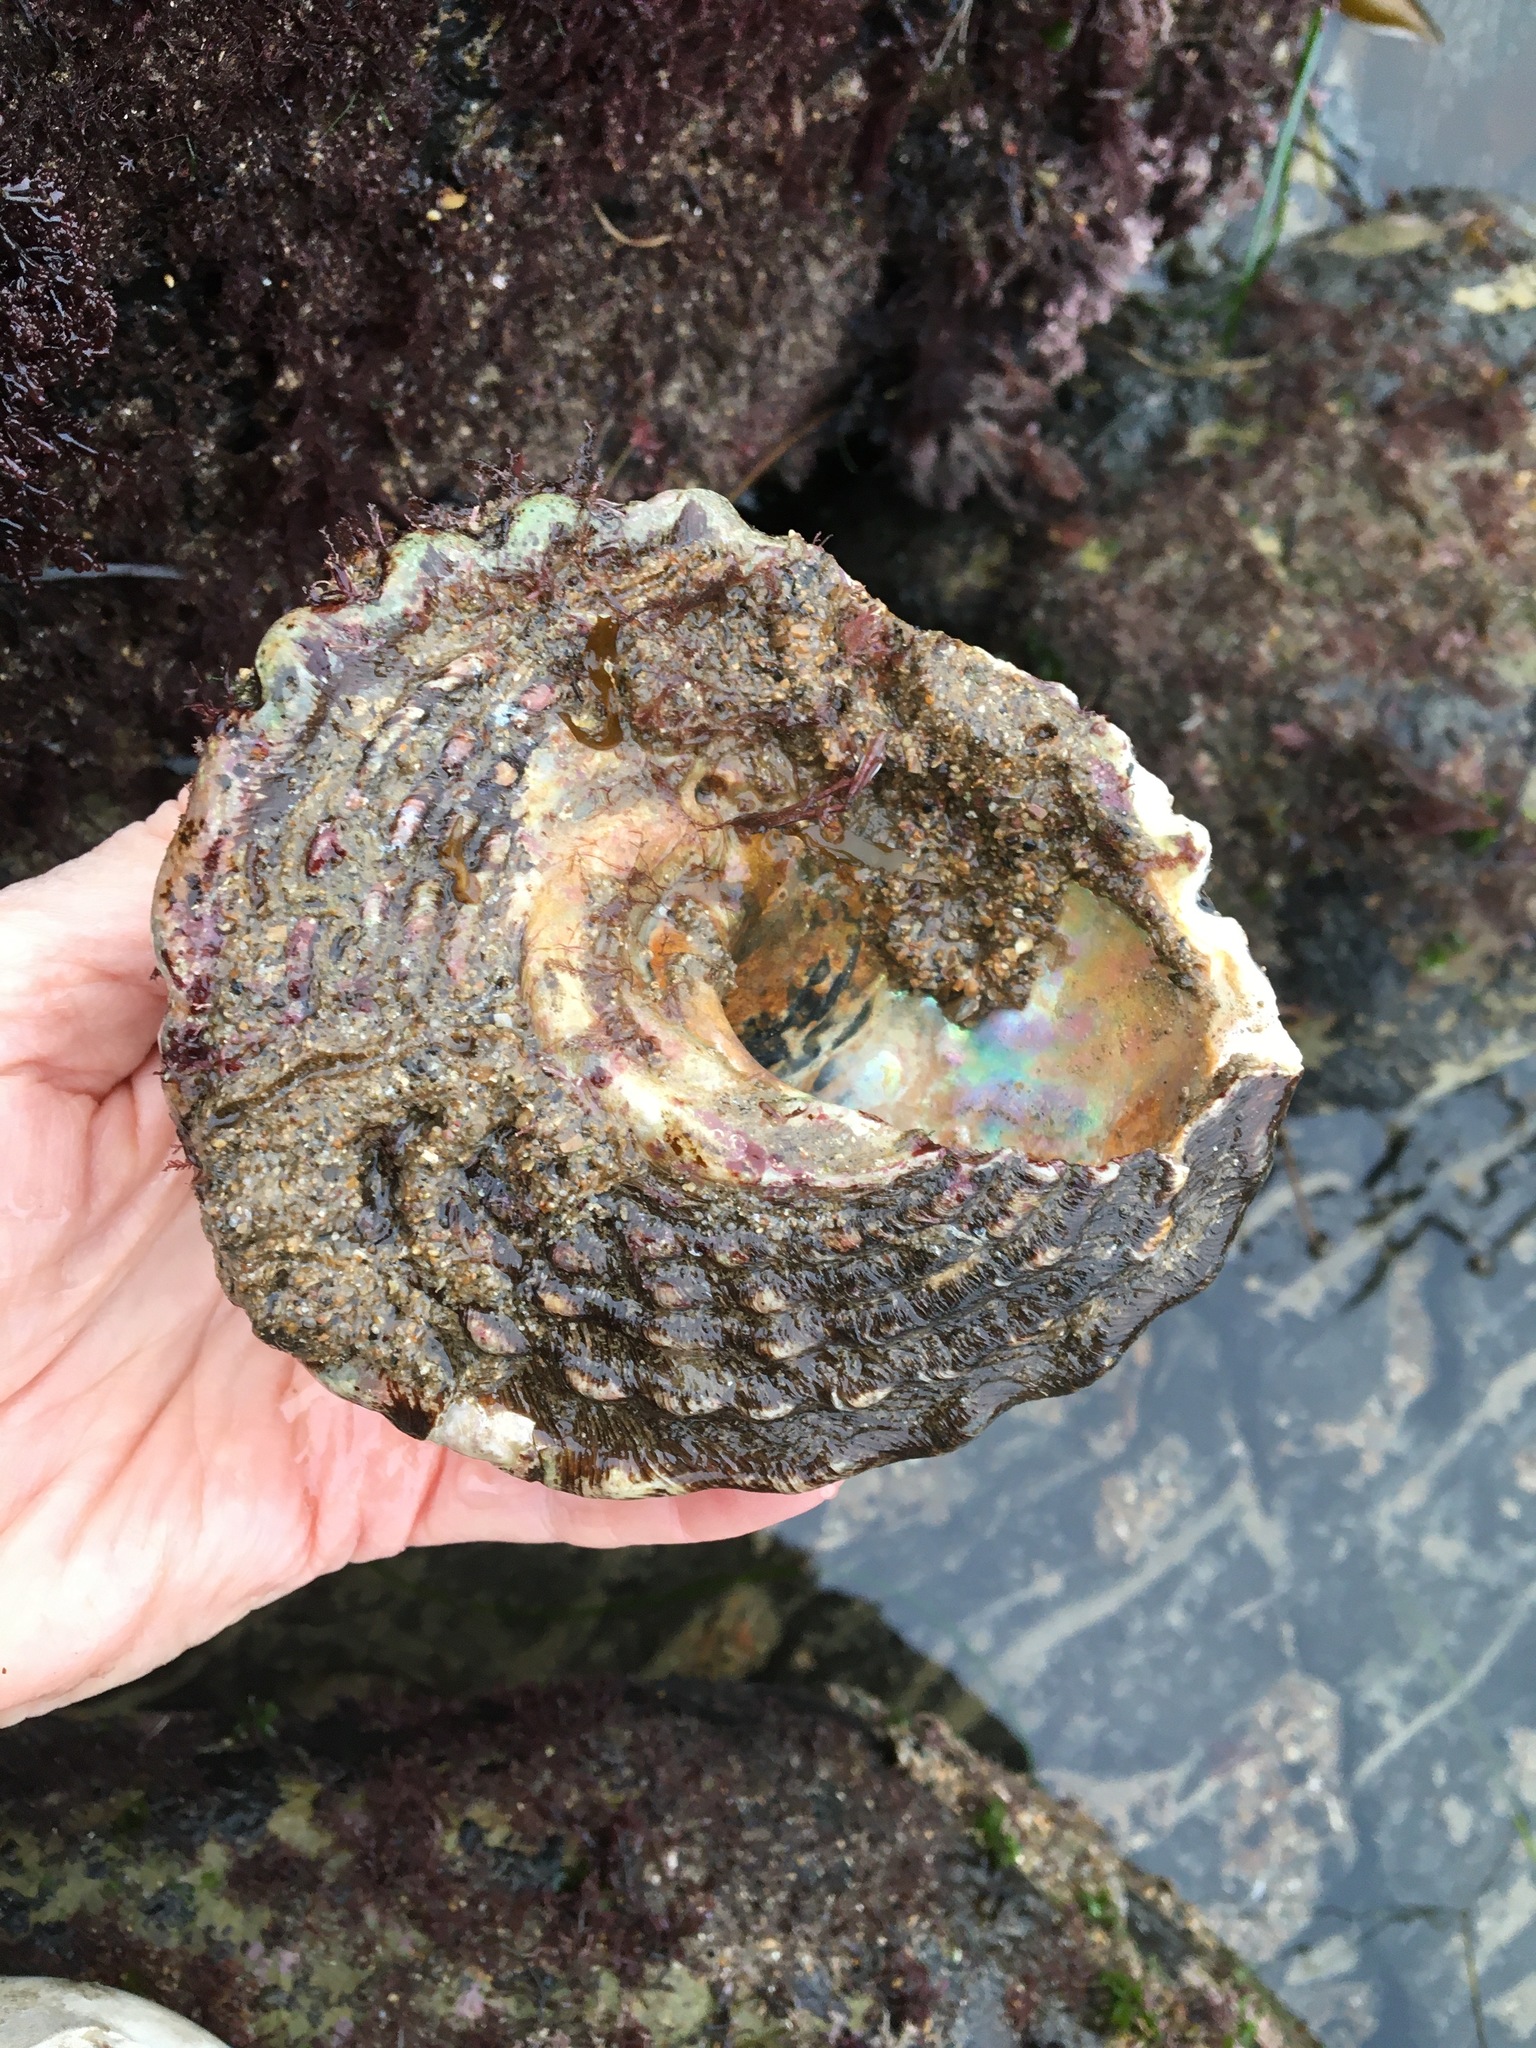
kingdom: Animalia
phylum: Mollusca
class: Gastropoda
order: Trochida
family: Turbinidae
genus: Megastraea
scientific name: Megastraea undosa
